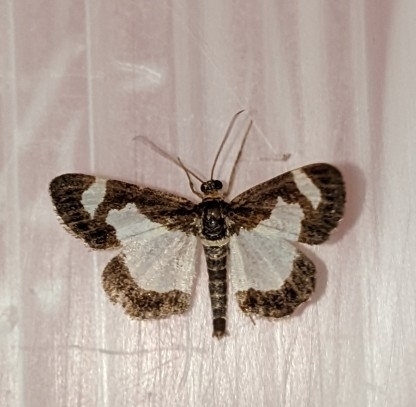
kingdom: Animalia
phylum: Arthropoda
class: Insecta
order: Lepidoptera
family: Geometridae
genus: Heliomata
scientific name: Heliomata cycladata
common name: Common spring moth
